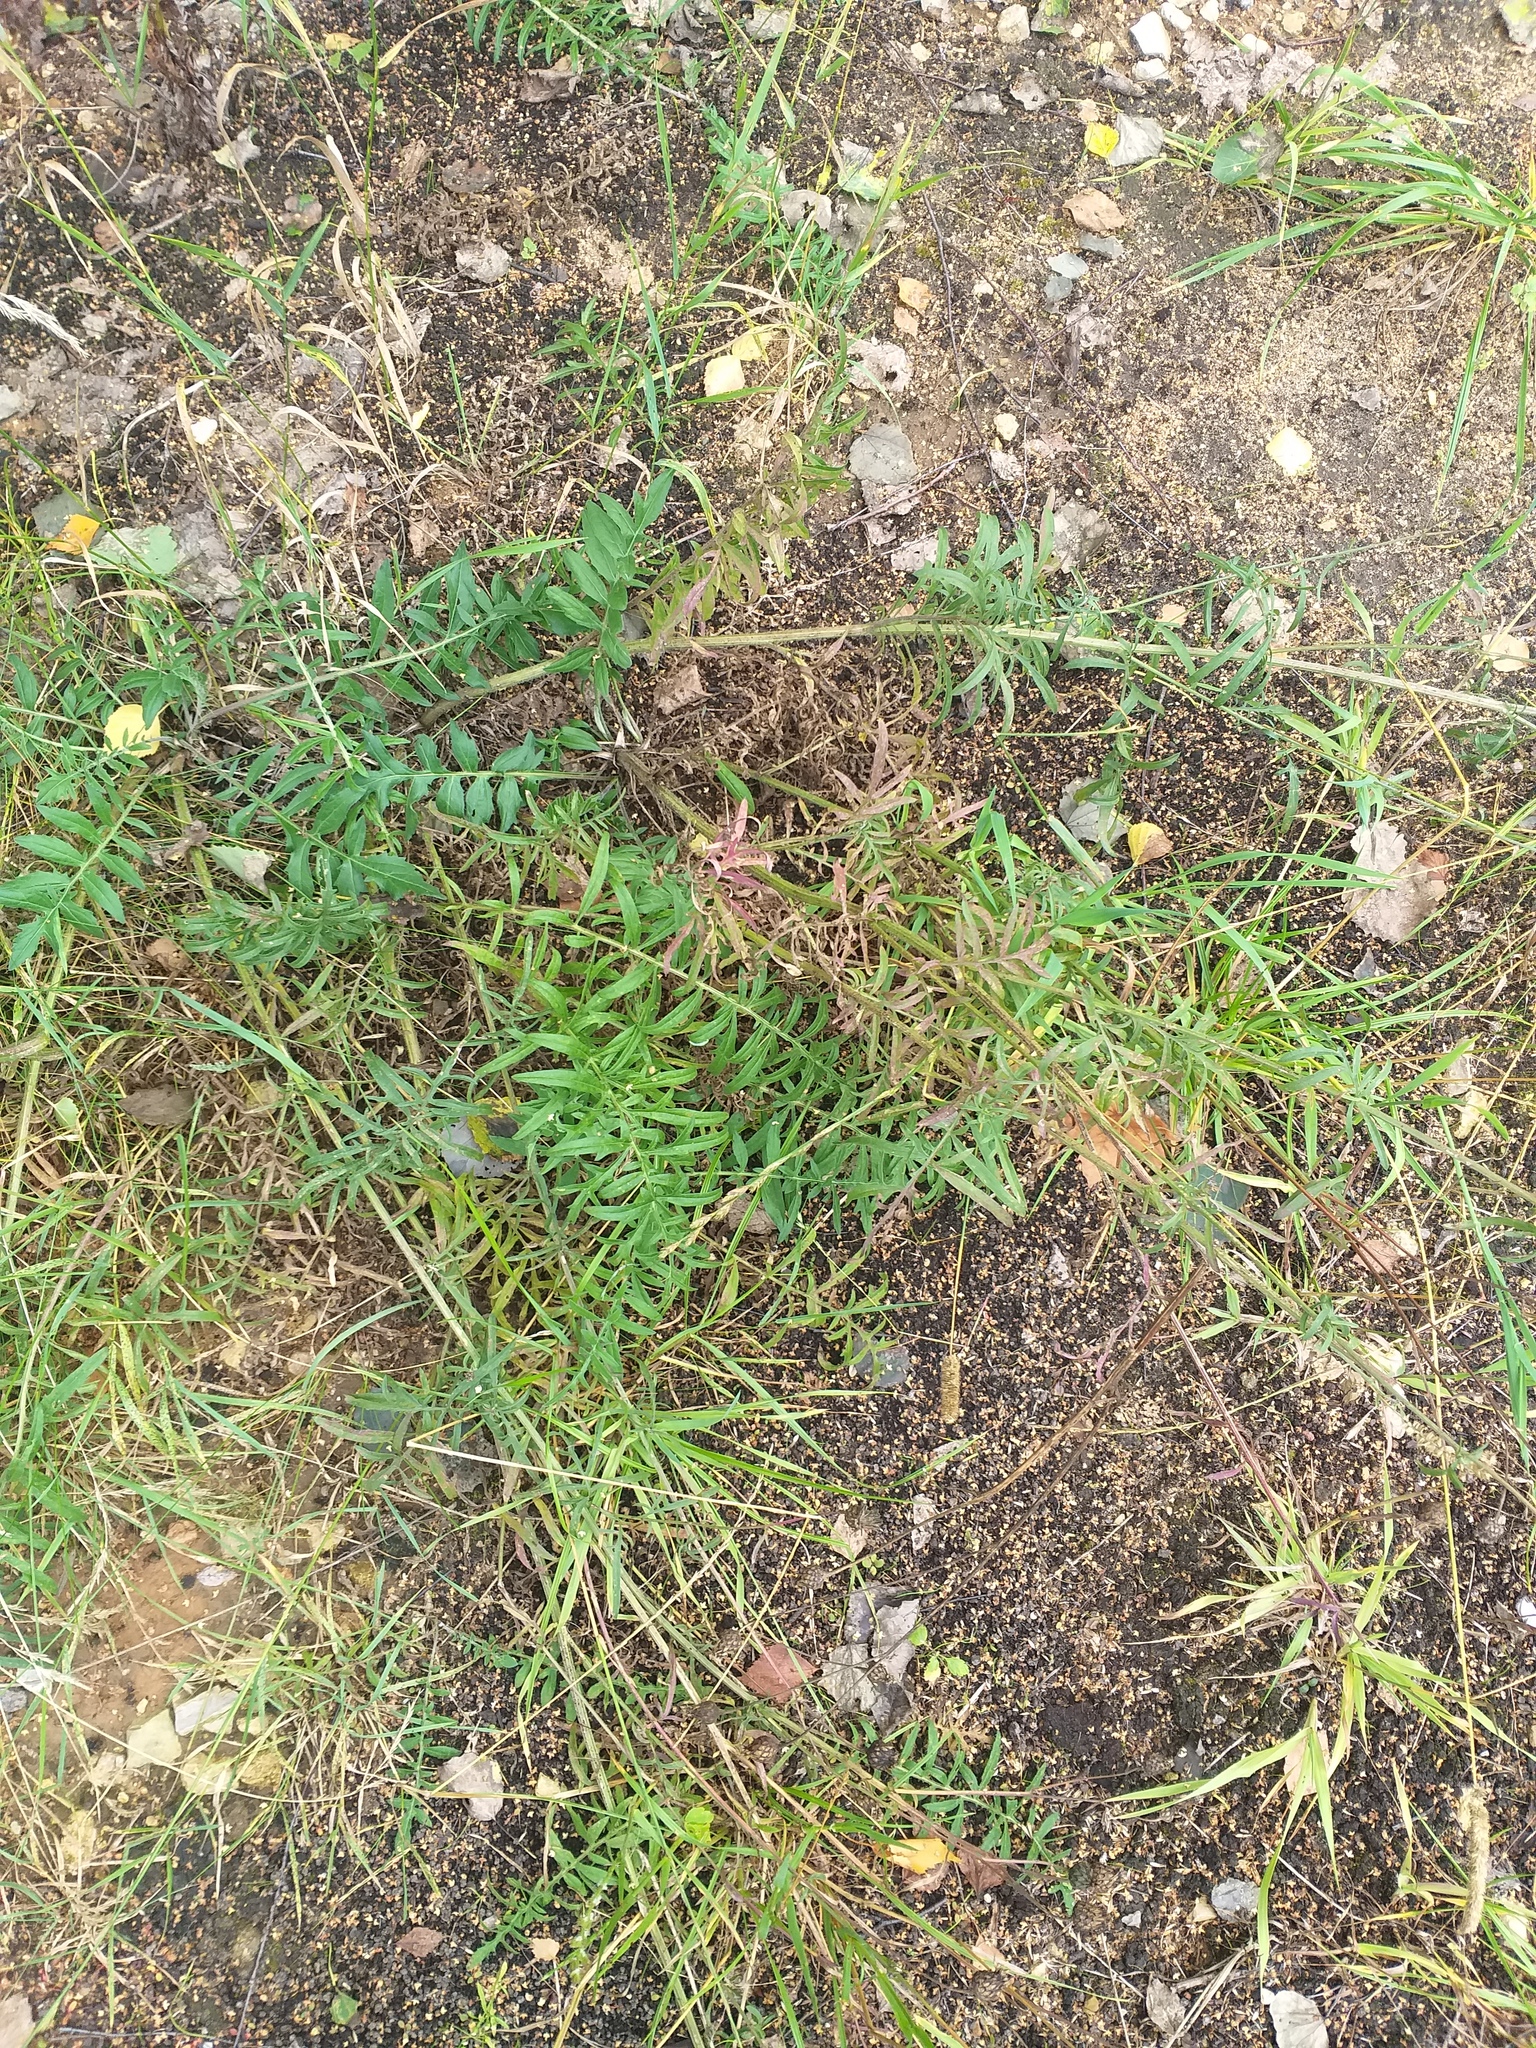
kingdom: Plantae
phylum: Tracheophyta
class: Magnoliopsida
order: Asterales
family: Asteraceae
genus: Centaurea
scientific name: Centaurea scabiosa
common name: Greater knapweed
